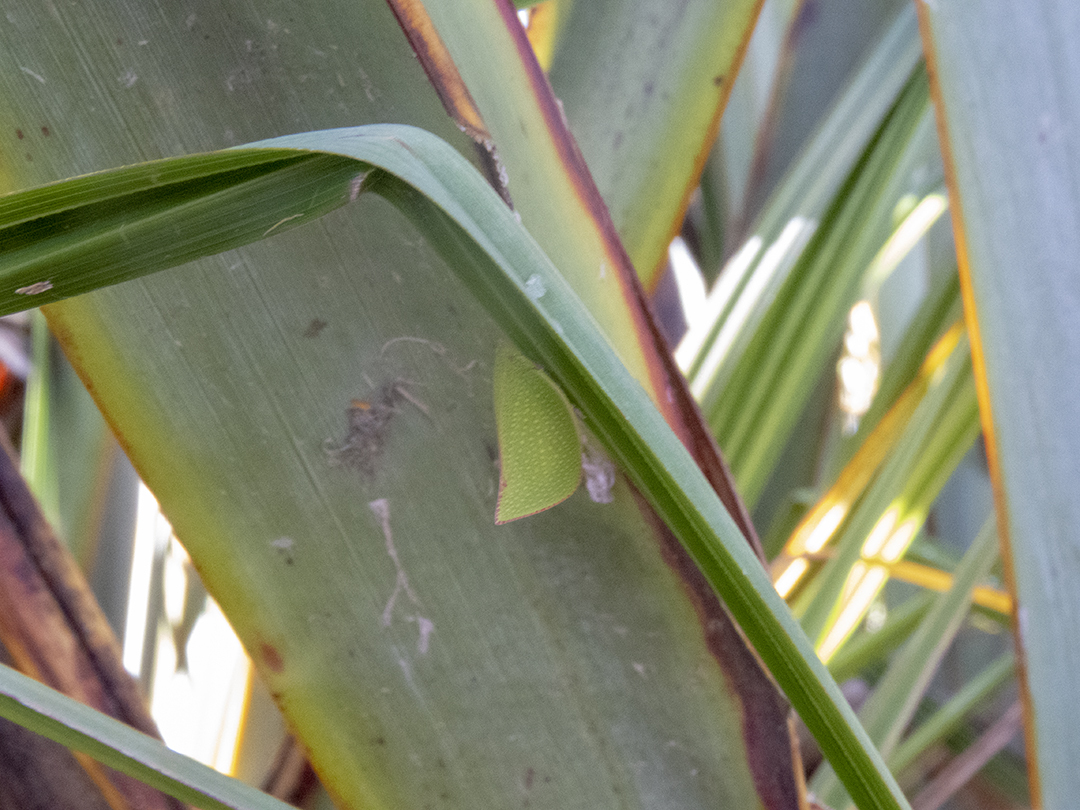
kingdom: Animalia
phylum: Arthropoda
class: Insecta
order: Hemiptera
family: Flatidae
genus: Siphanta
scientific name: Siphanta acuta
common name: Torpedo bug
